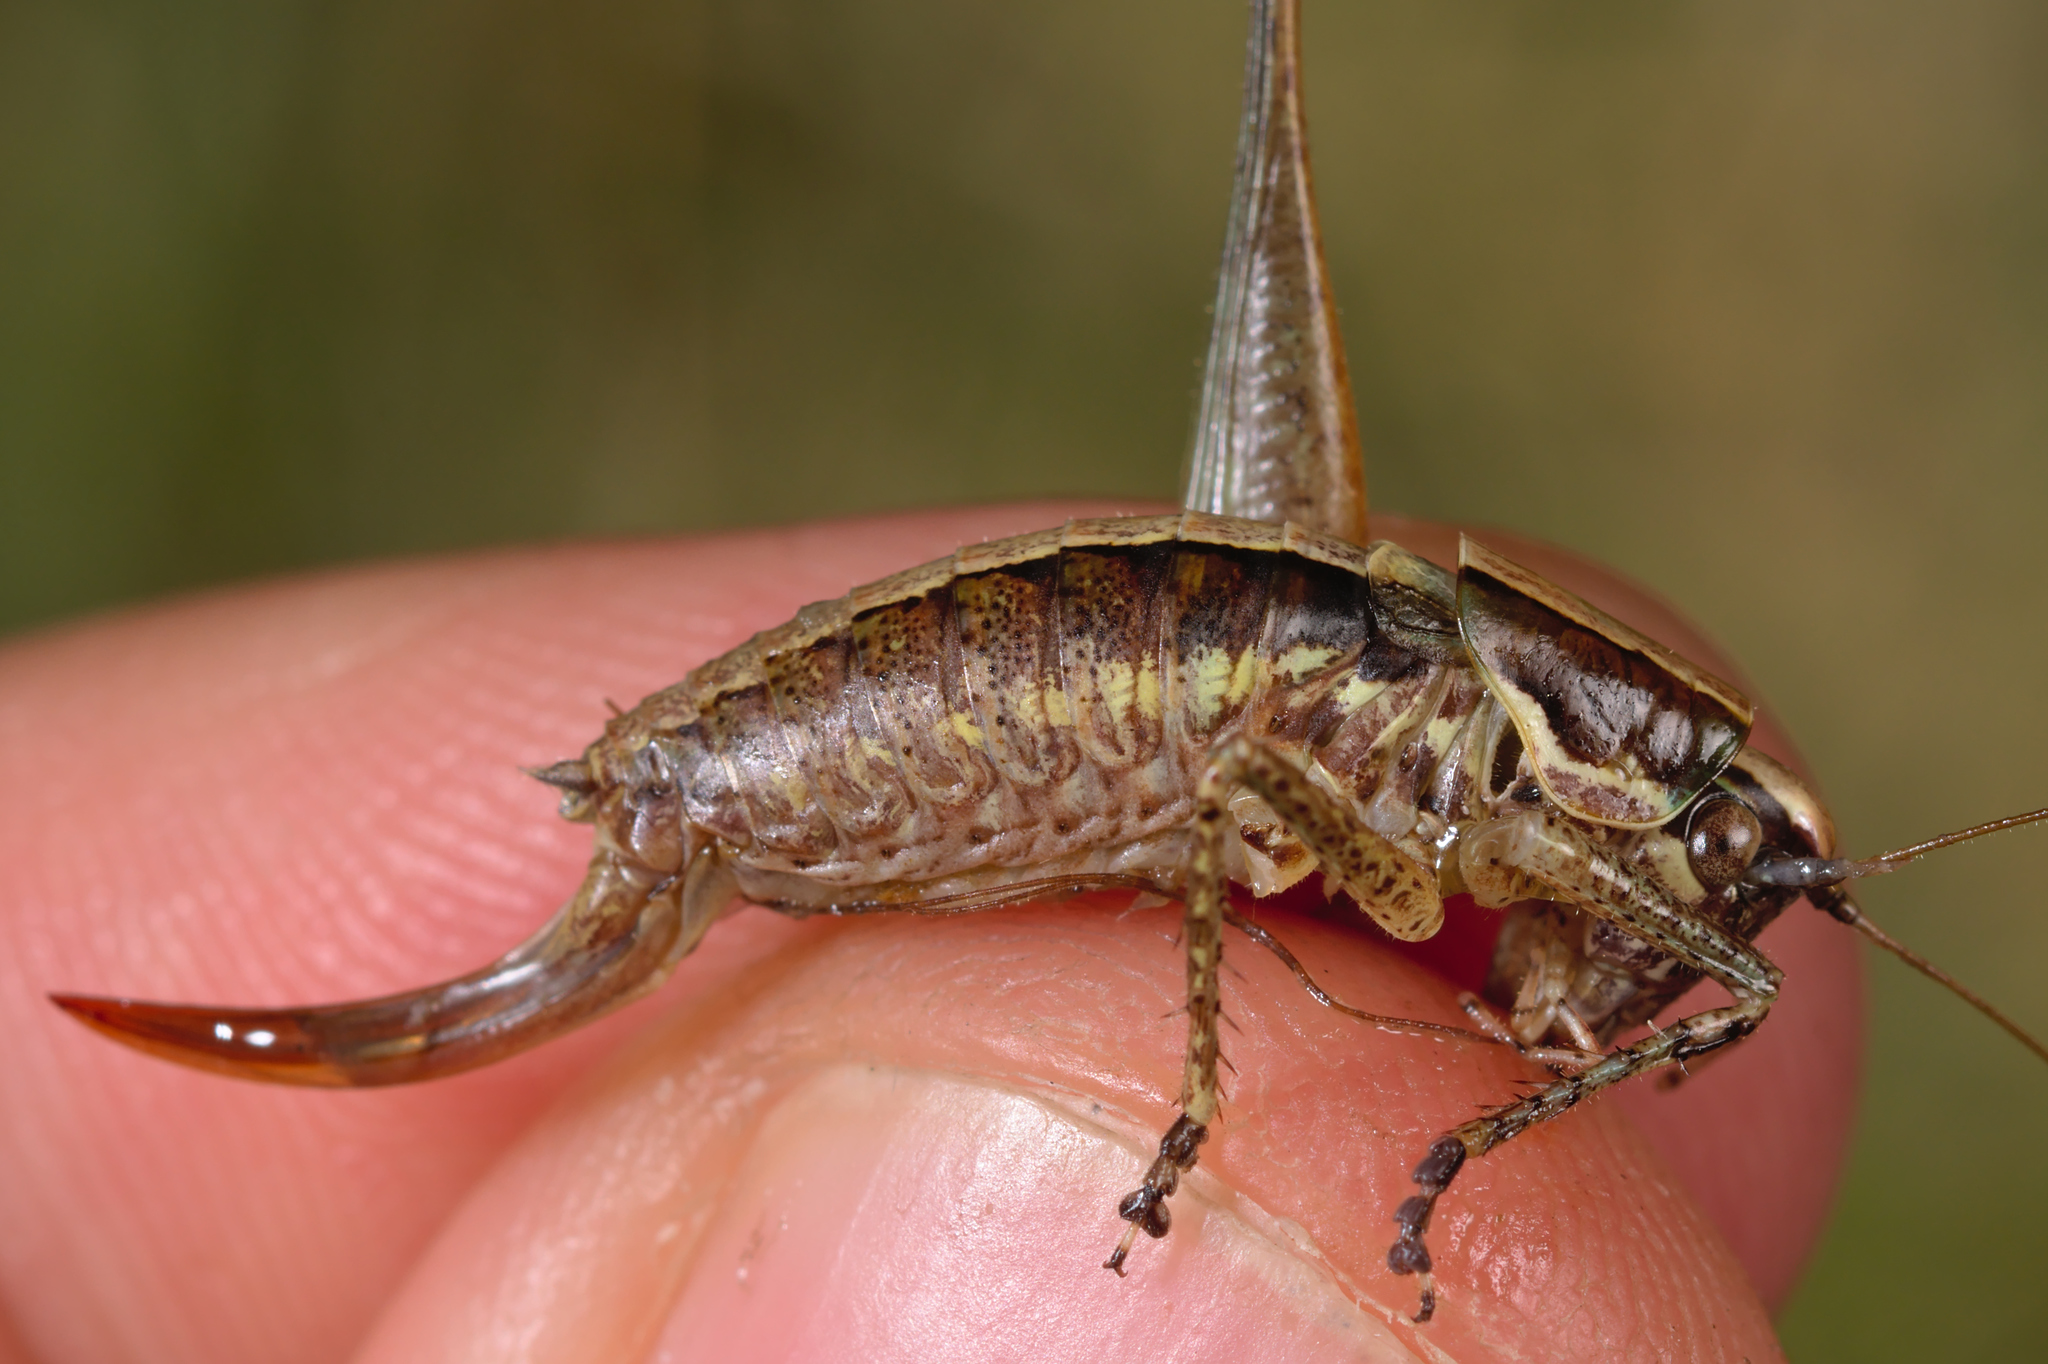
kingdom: Animalia
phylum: Arthropoda
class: Insecta
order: Orthoptera
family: Tettigoniidae
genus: Yersinella
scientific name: Yersinella raymondii
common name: Raymond's bush-cricket
